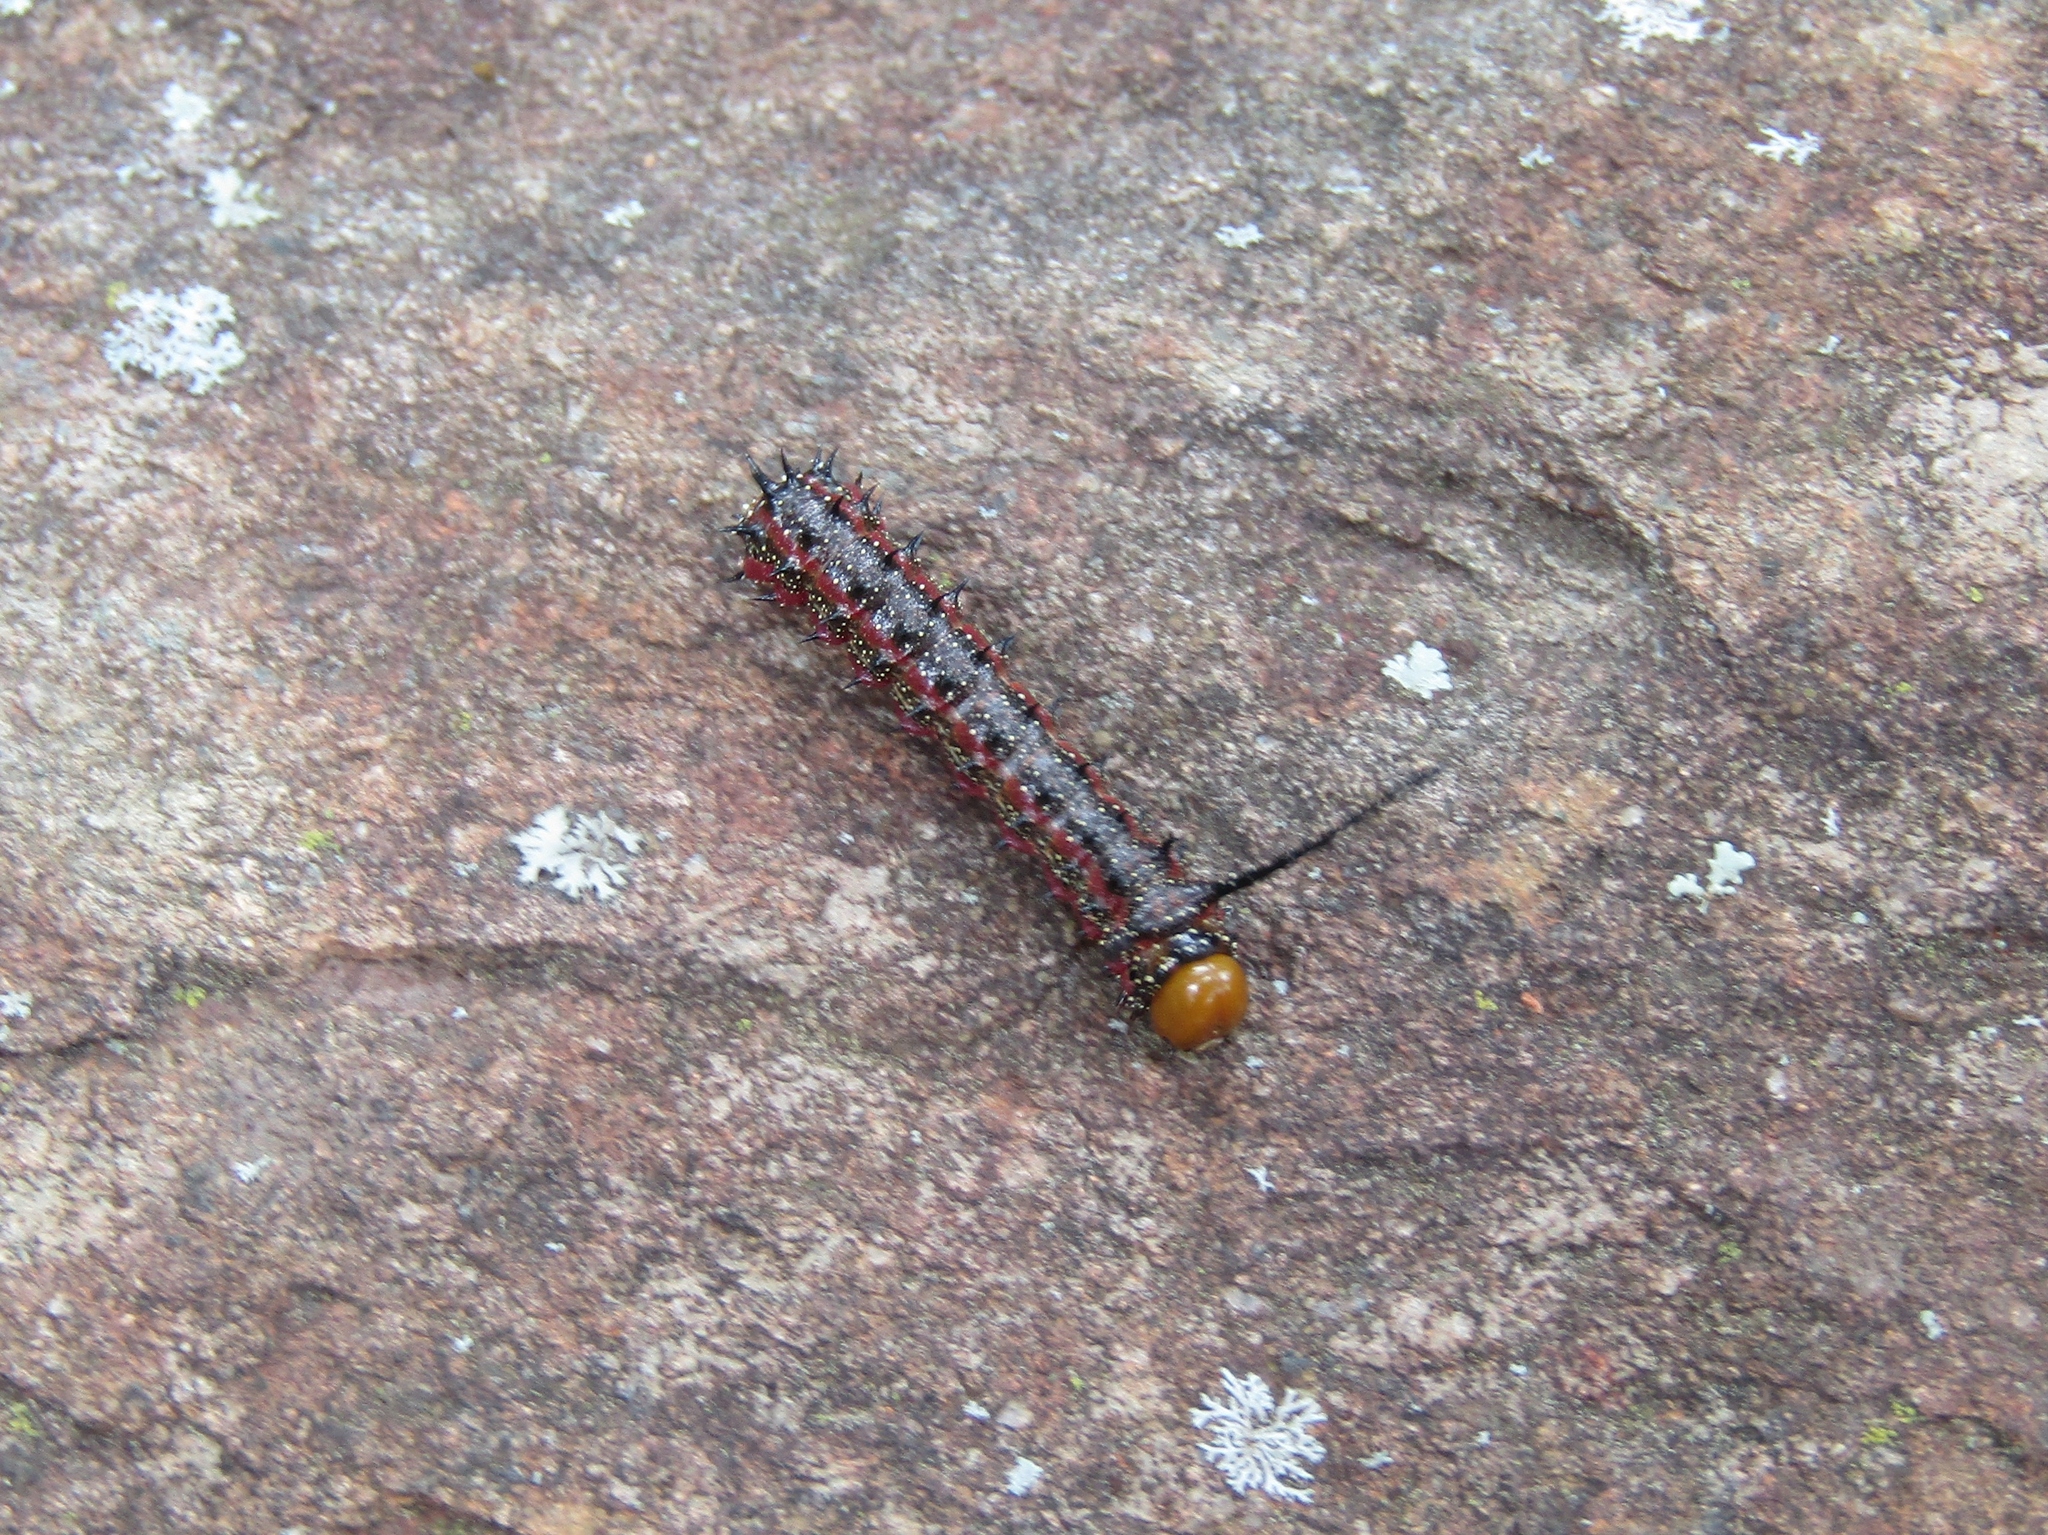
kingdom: Animalia
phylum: Arthropoda
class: Insecta
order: Lepidoptera
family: Saturniidae
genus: Anisota
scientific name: Anisota virginiensis
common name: Pink striped oakworm moth
